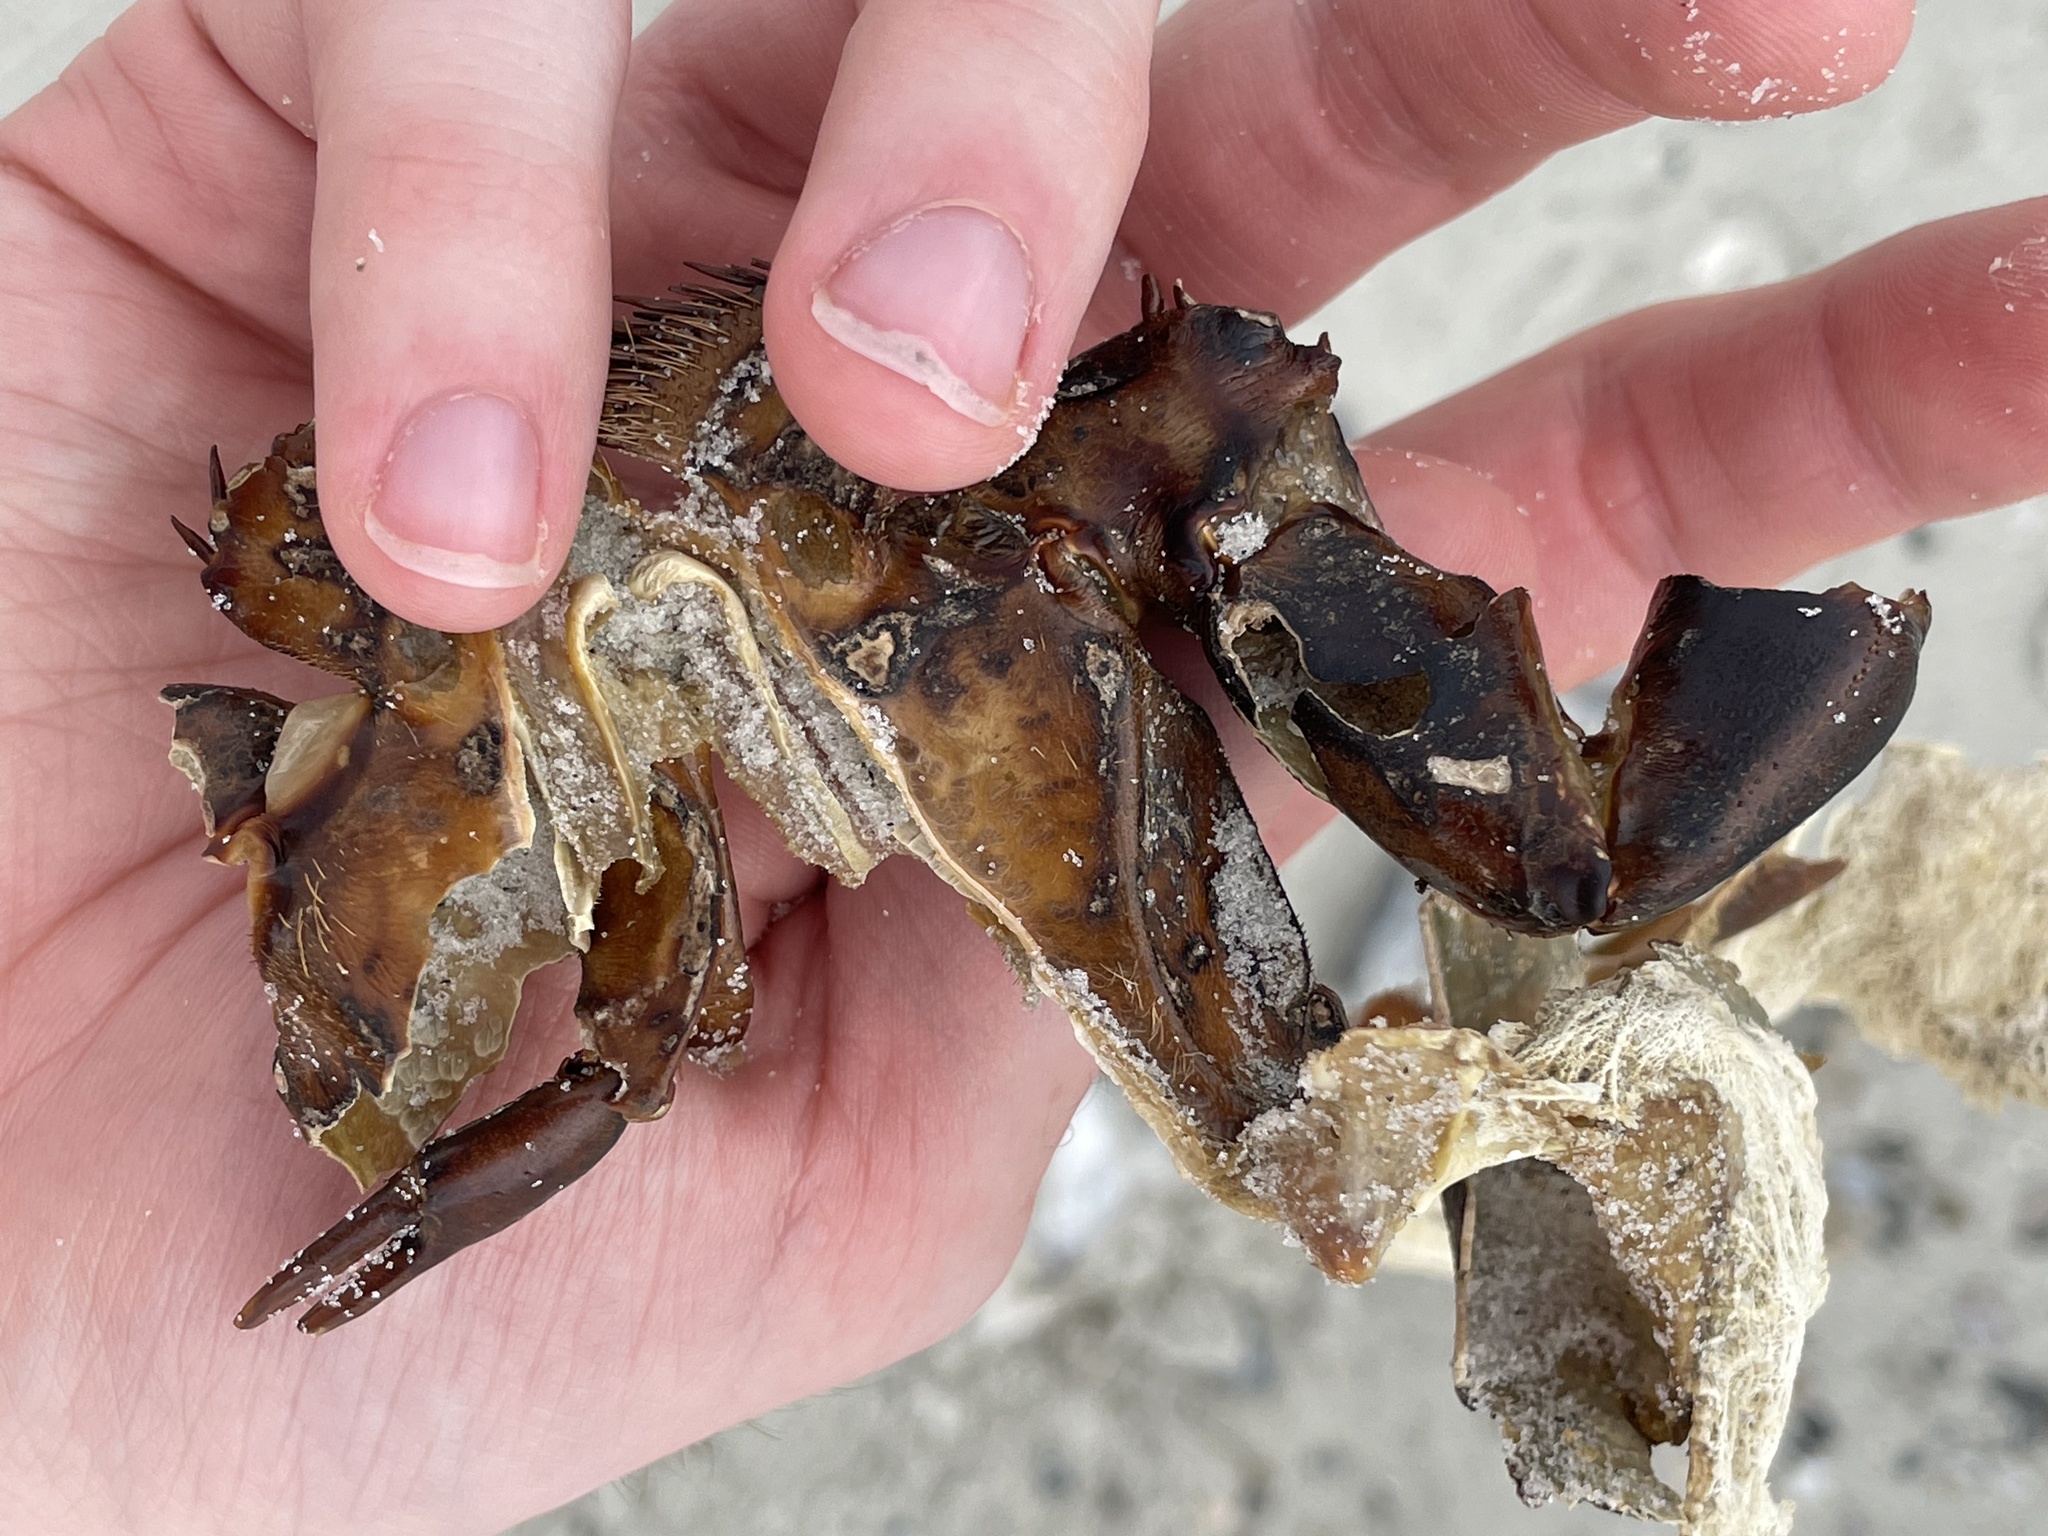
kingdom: Animalia
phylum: Arthropoda
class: Merostomata
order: Xiphosurida
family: Limulidae
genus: Limulus
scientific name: Limulus polyphemus
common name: Horseshoe crab
